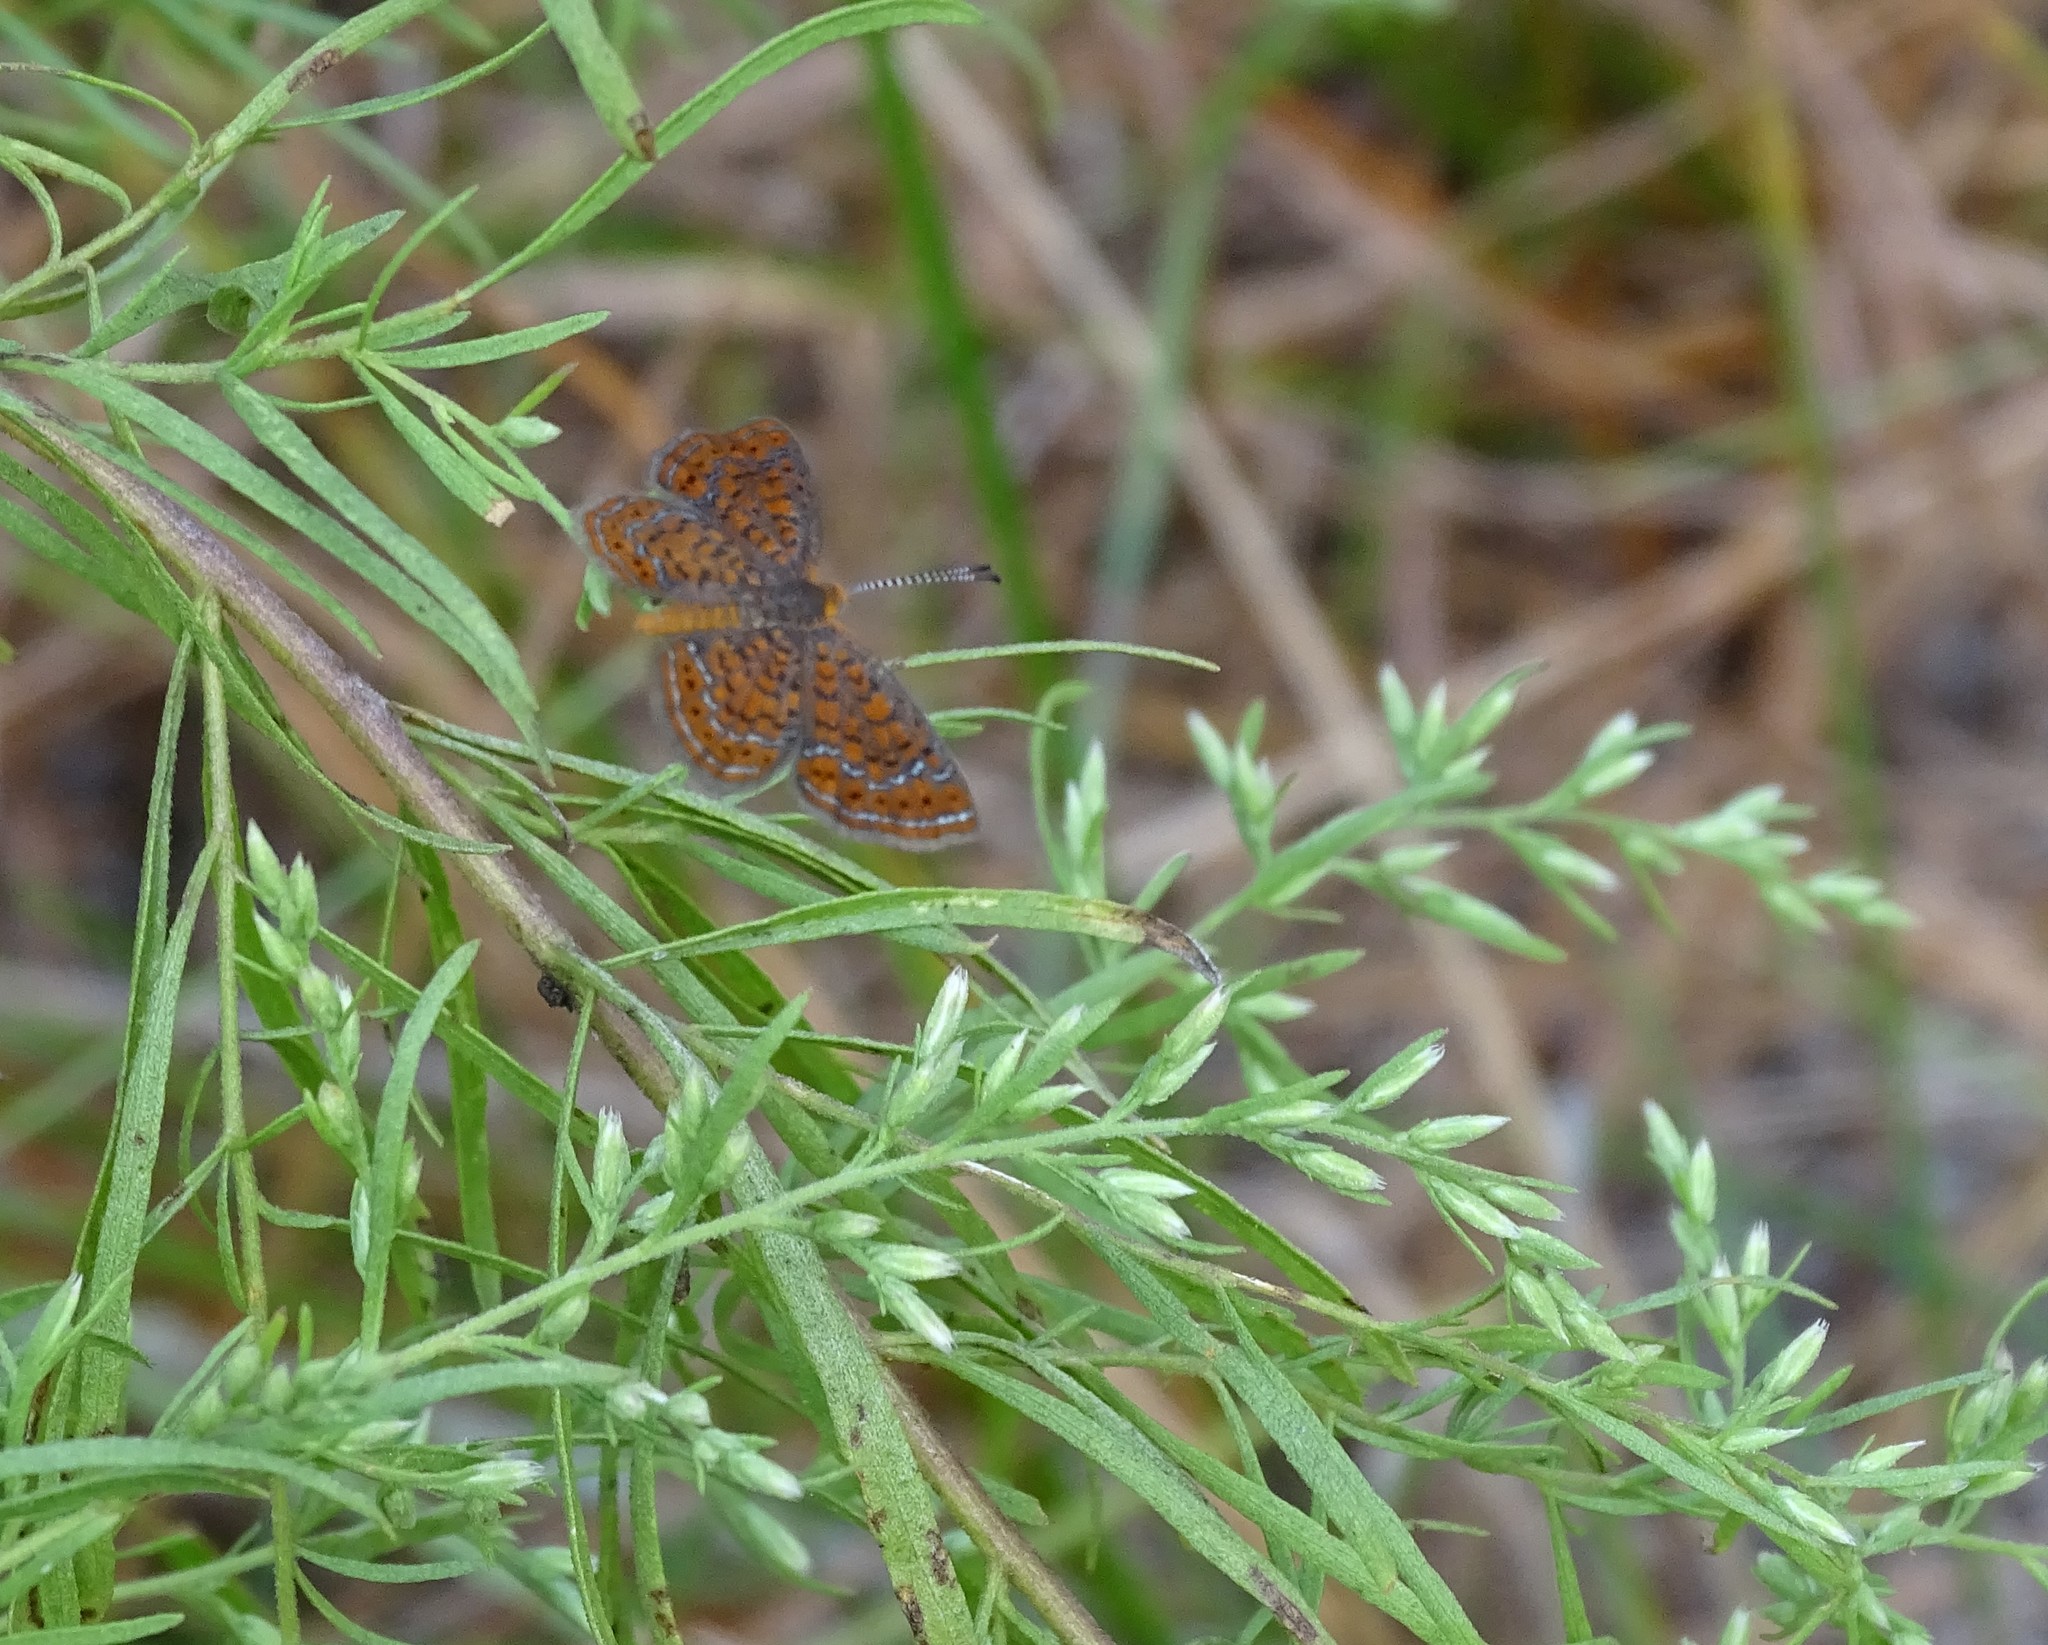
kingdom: Animalia
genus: Calephelis
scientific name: Calephelis virginiensis
